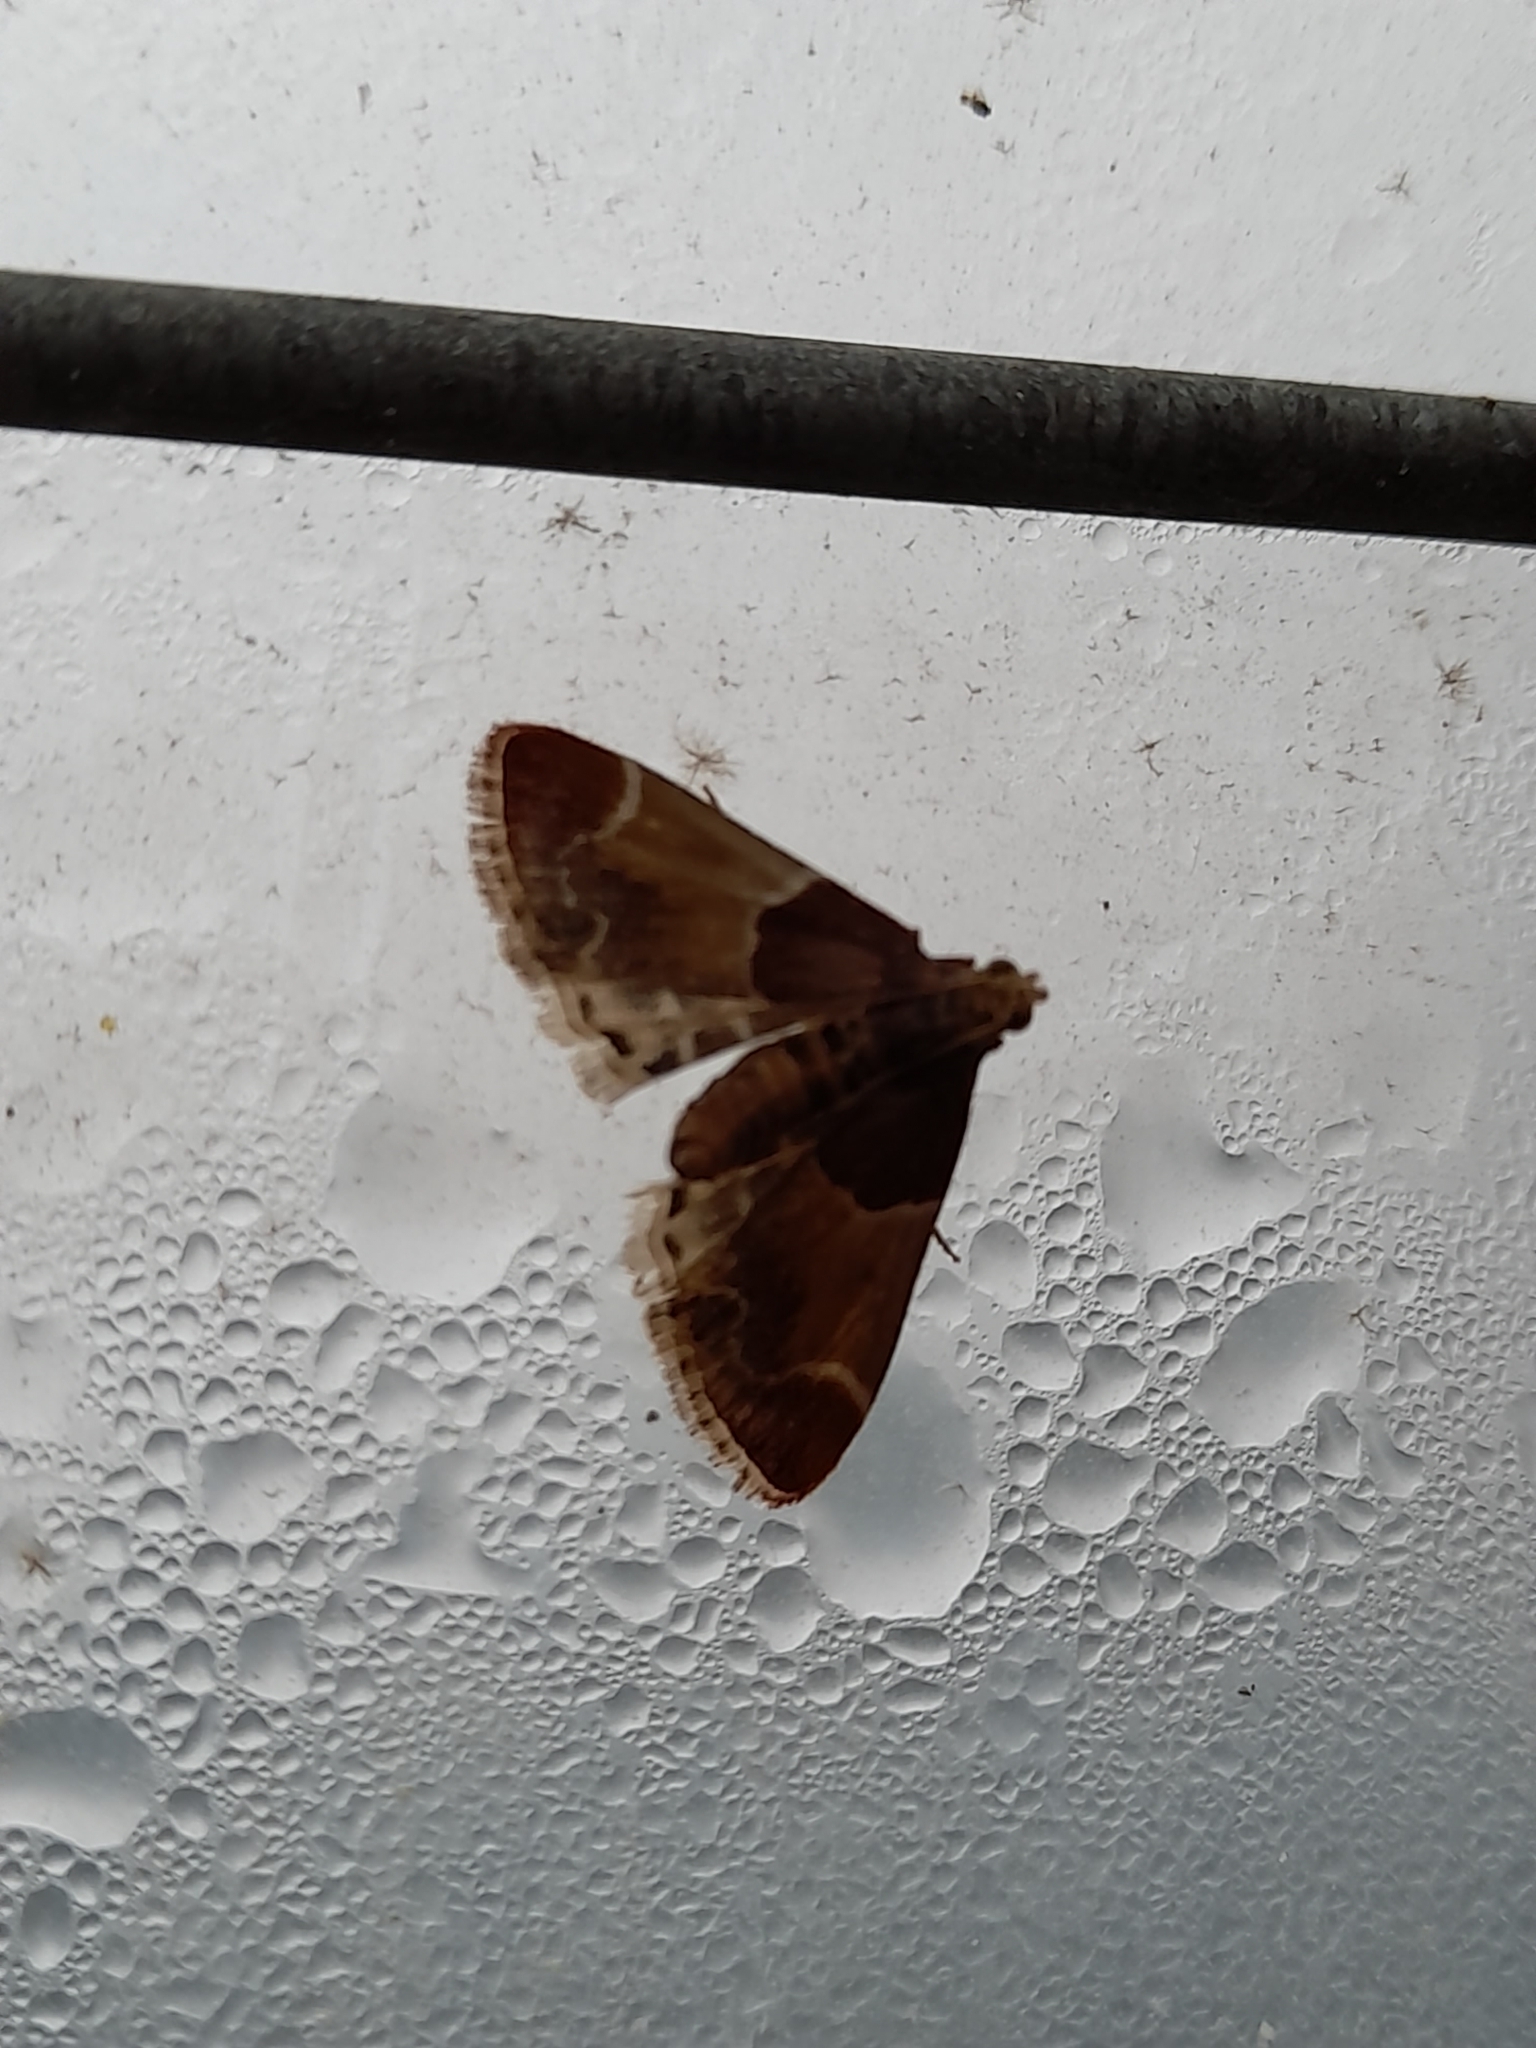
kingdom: Animalia
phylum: Arthropoda
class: Insecta
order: Lepidoptera
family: Pyralidae
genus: Pyralis
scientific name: Pyralis farinalis
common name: Meal moth
